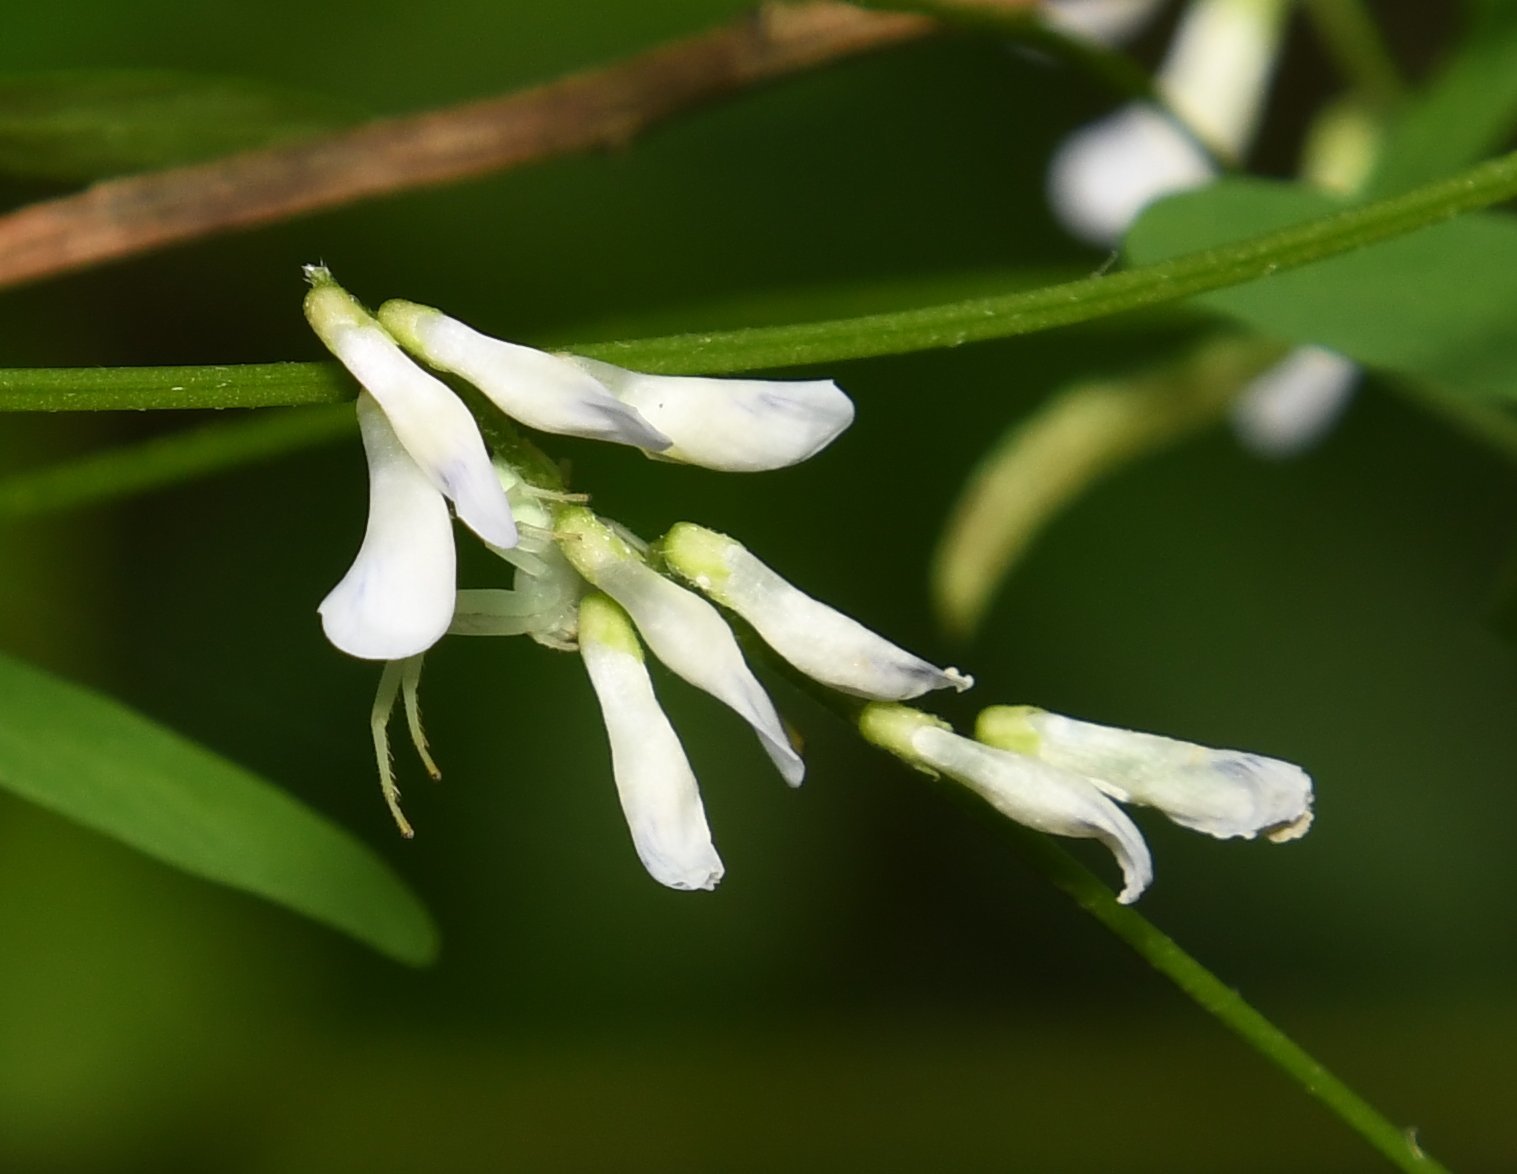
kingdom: Plantae
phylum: Tracheophyta
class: Magnoliopsida
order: Fabales
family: Fabaceae
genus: Vicia
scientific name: Vicia acutifolia
